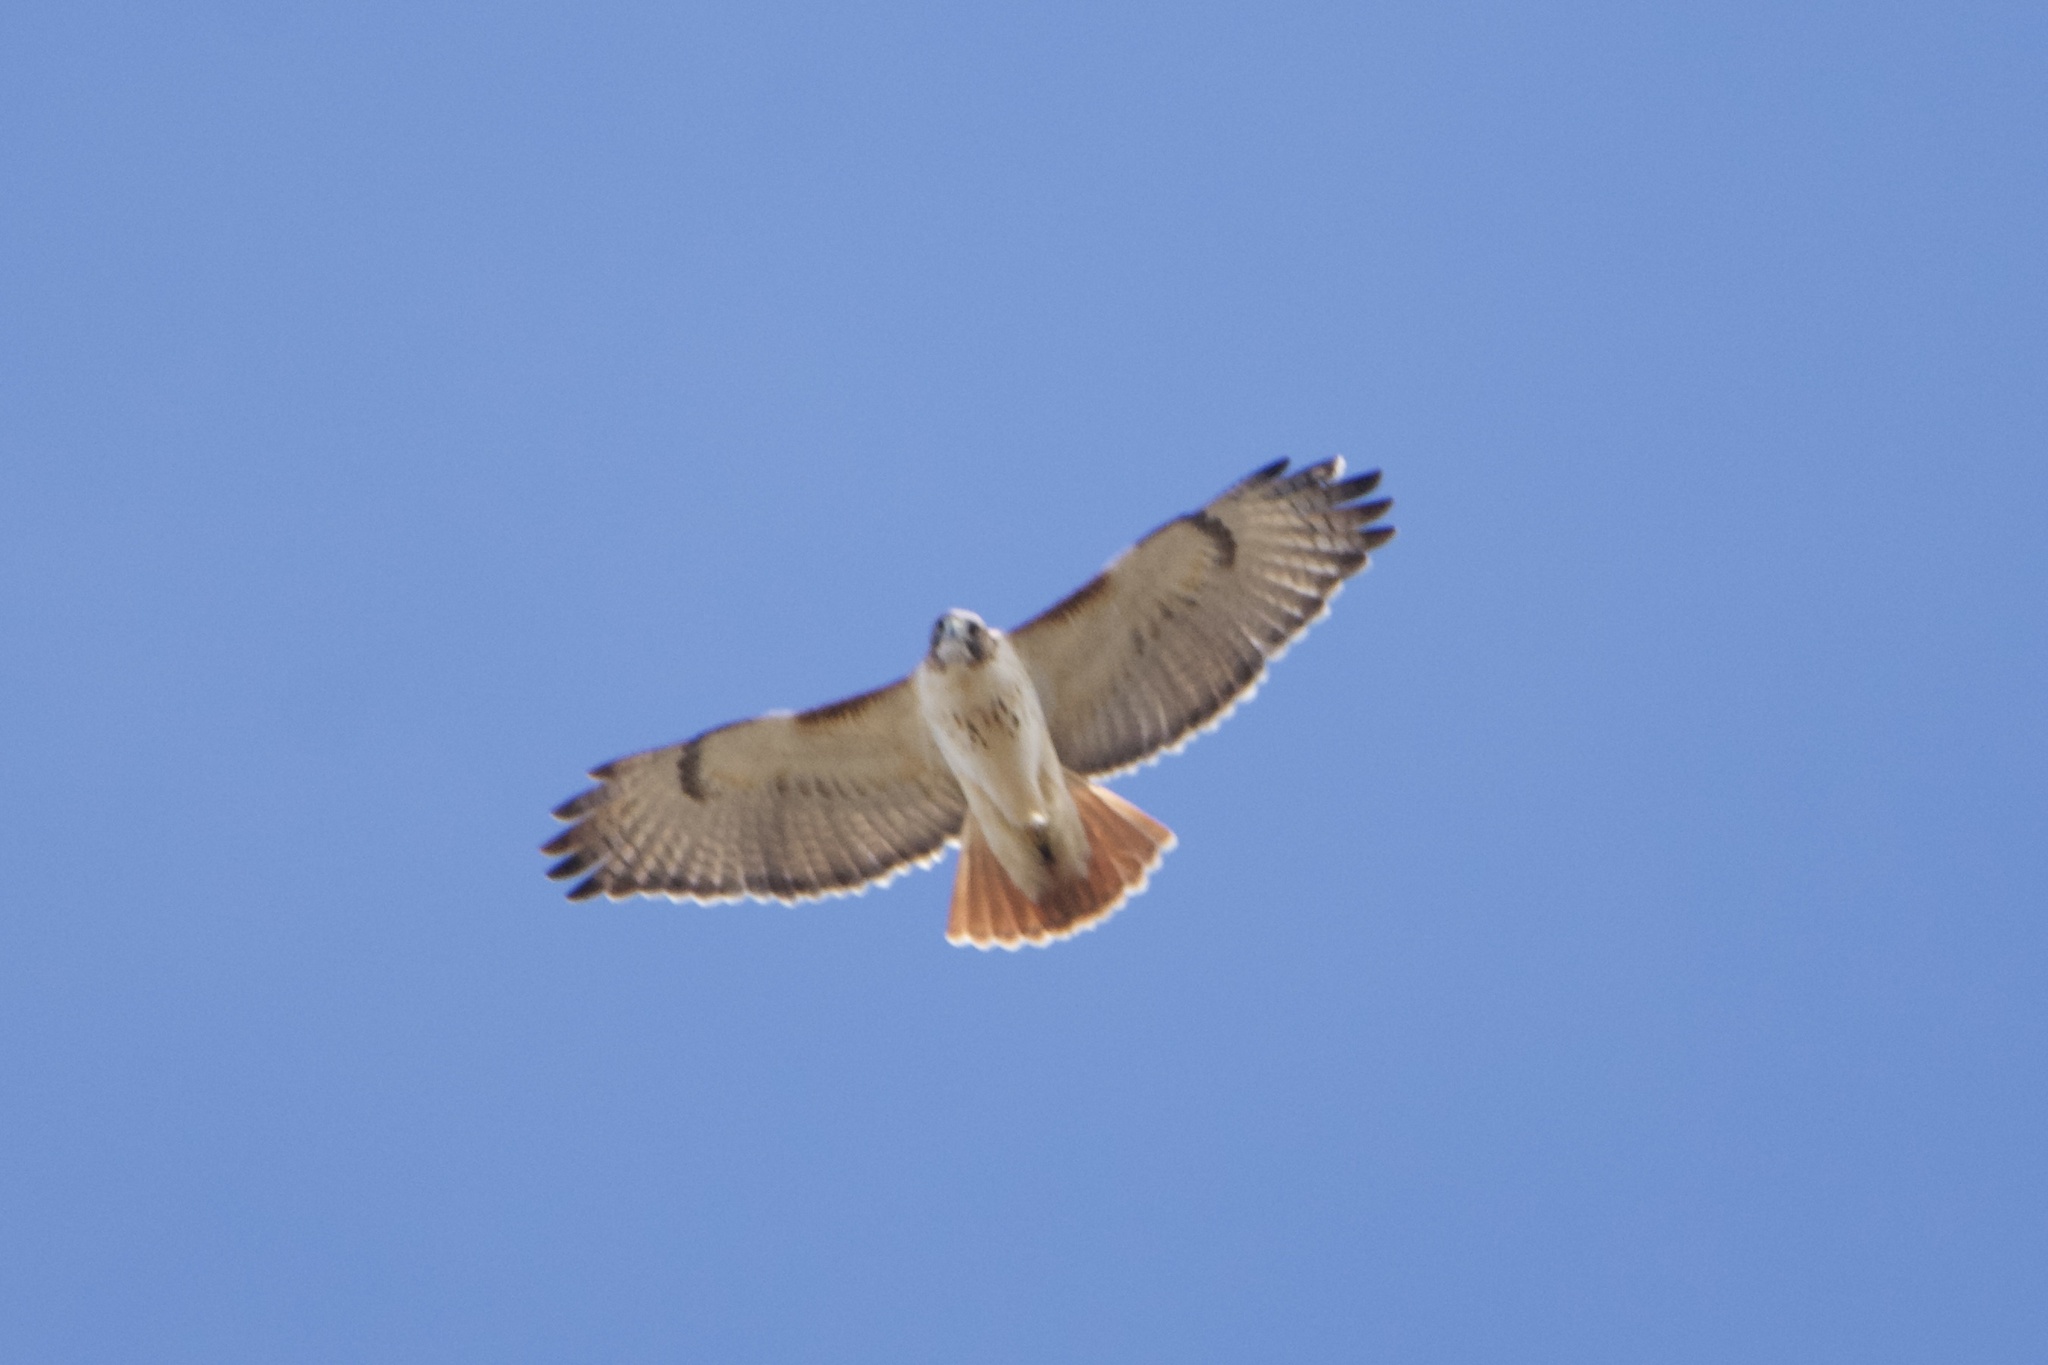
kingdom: Animalia
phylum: Chordata
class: Aves
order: Accipitriformes
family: Accipitridae
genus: Buteo
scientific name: Buteo jamaicensis
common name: Red-tailed hawk
